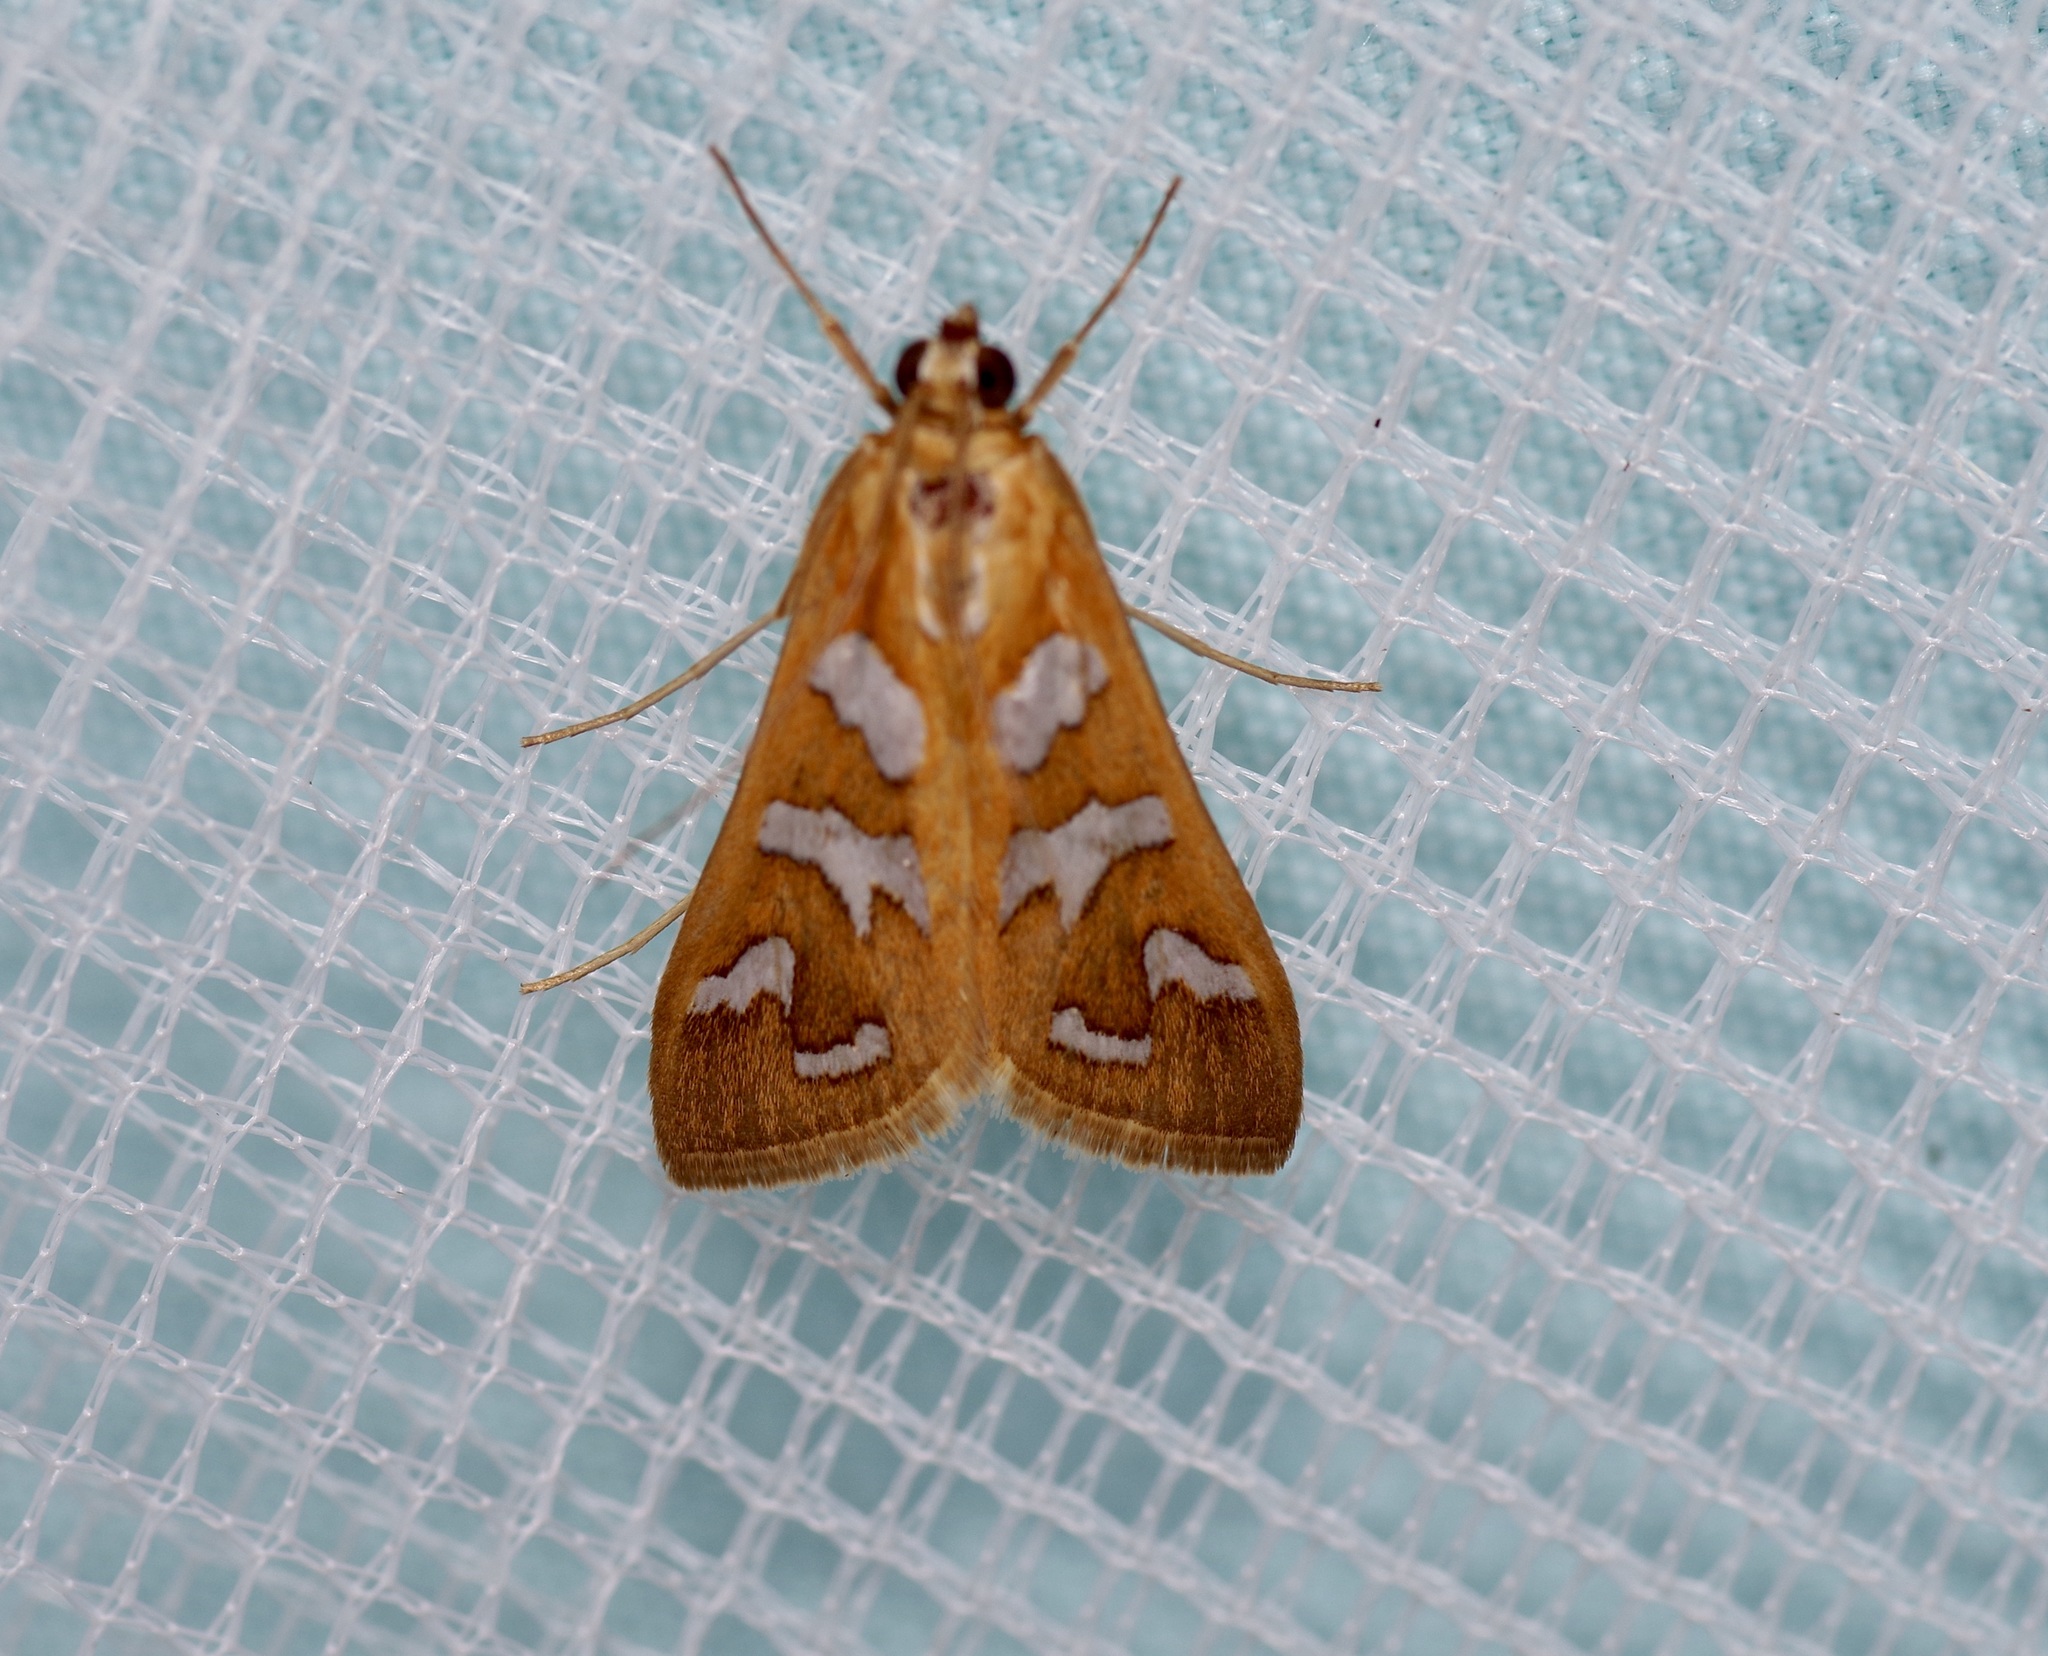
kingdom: Animalia
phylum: Arthropoda
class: Insecta
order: Lepidoptera
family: Crambidae
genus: Diastictis
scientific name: Diastictis fracturalis
